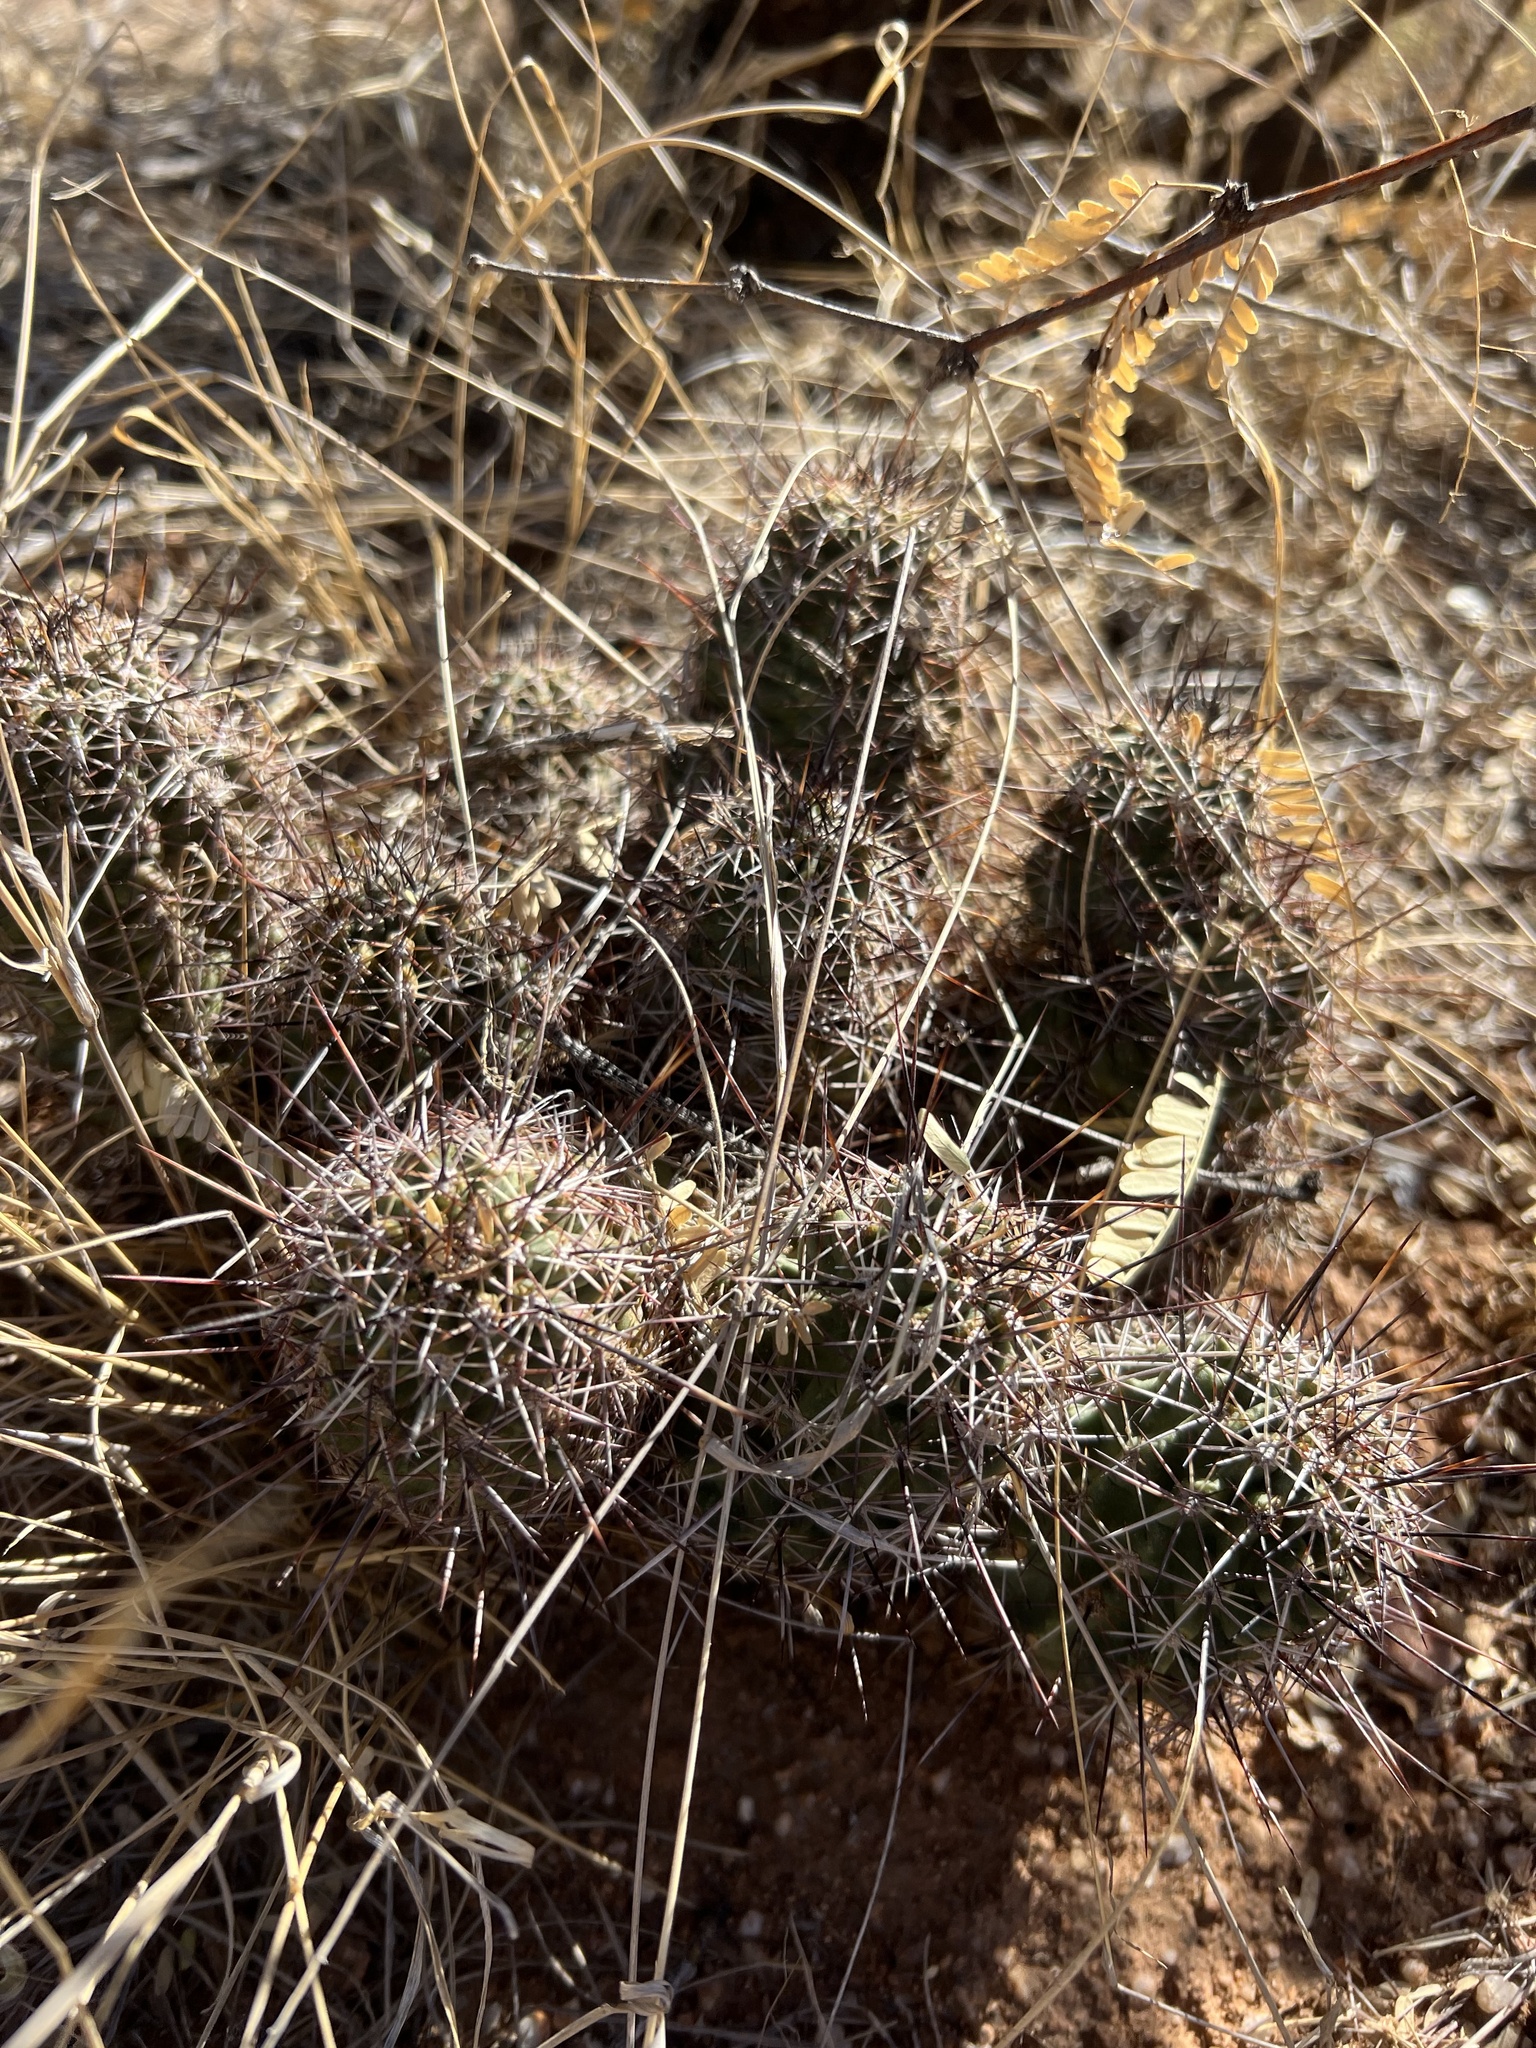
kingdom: Plantae
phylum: Tracheophyta
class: Magnoliopsida
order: Caryophyllales
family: Cactaceae
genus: Echinocereus
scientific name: Echinocereus fendleri
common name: Fendler's hedgehog cactus
